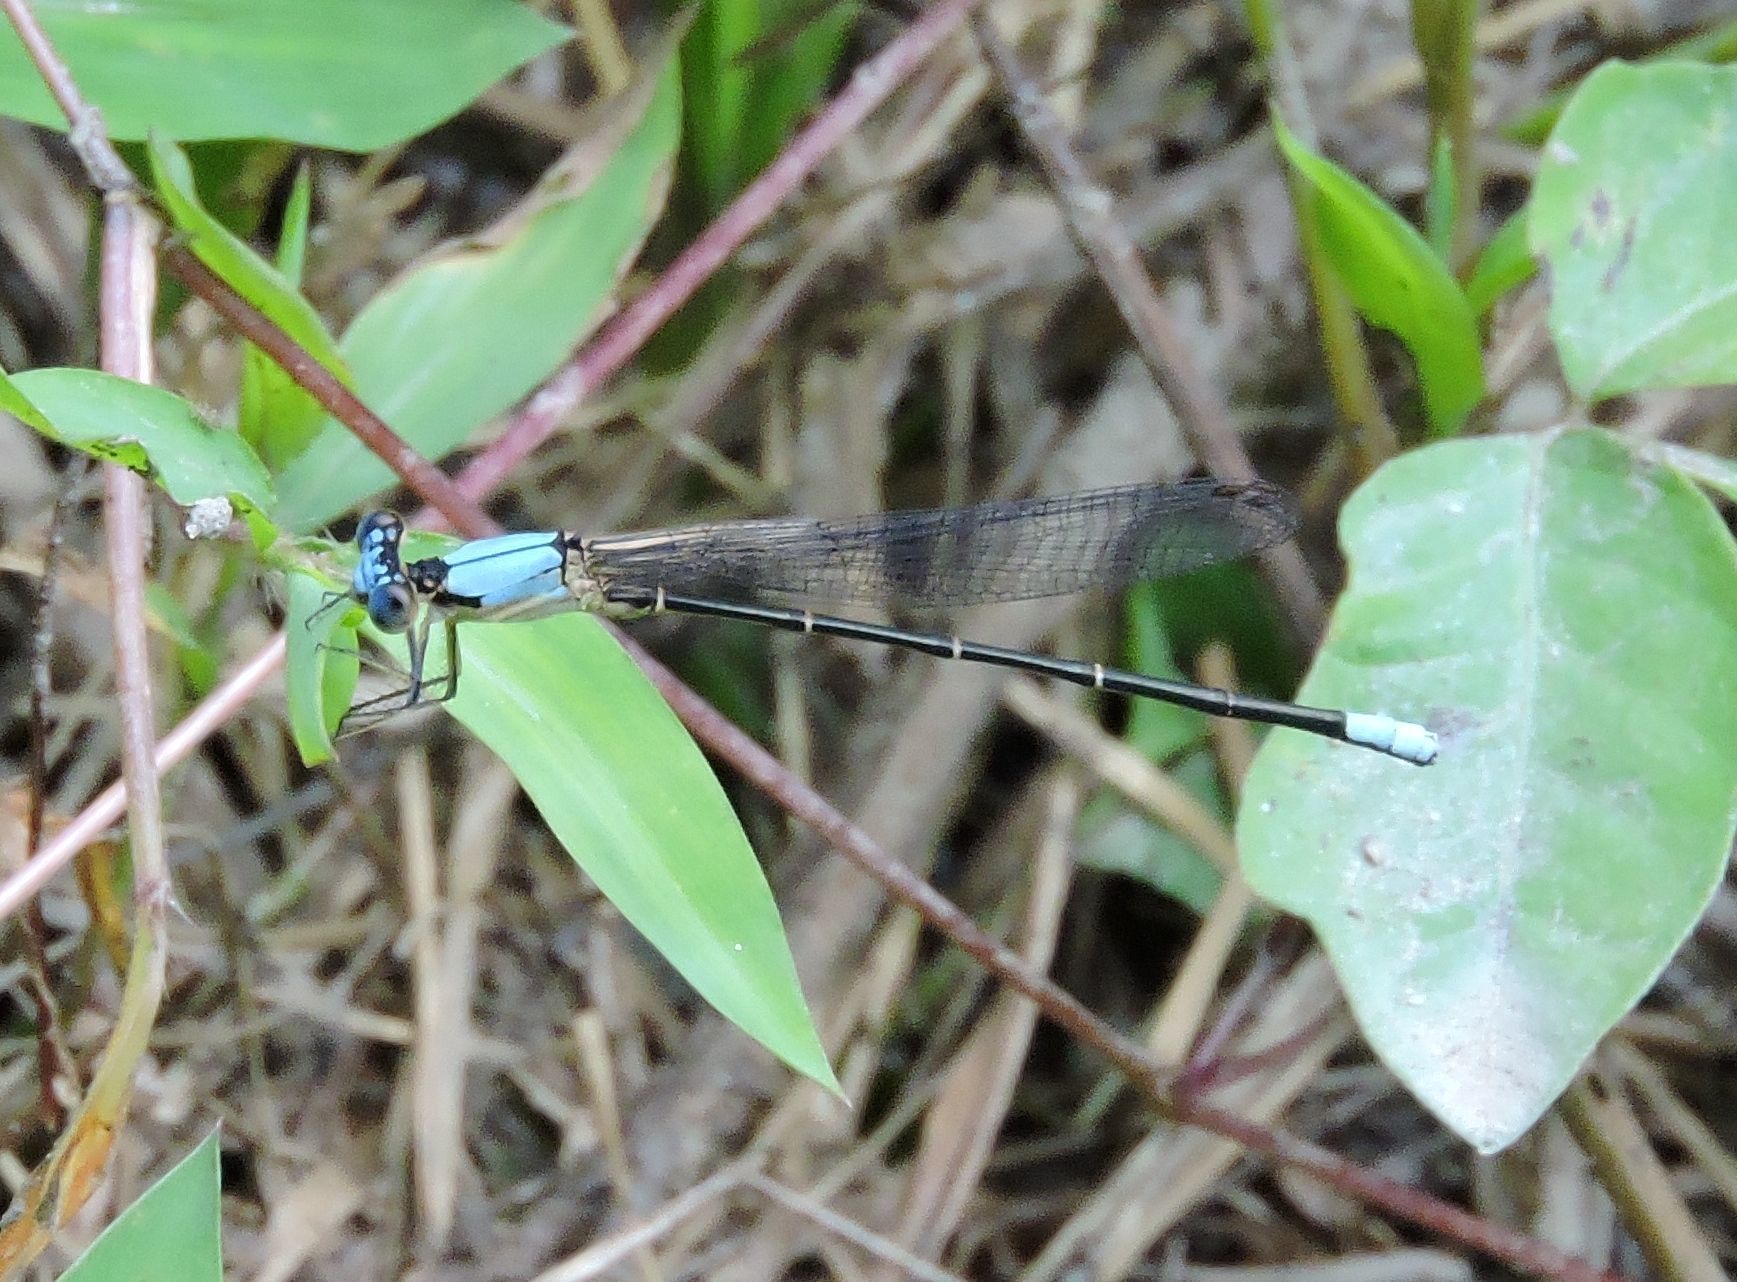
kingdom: Animalia
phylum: Arthropoda
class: Insecta
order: Odonata
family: Coenagrionidae
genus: Argia
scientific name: Argia apicalis
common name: Blue-fronted dancer
